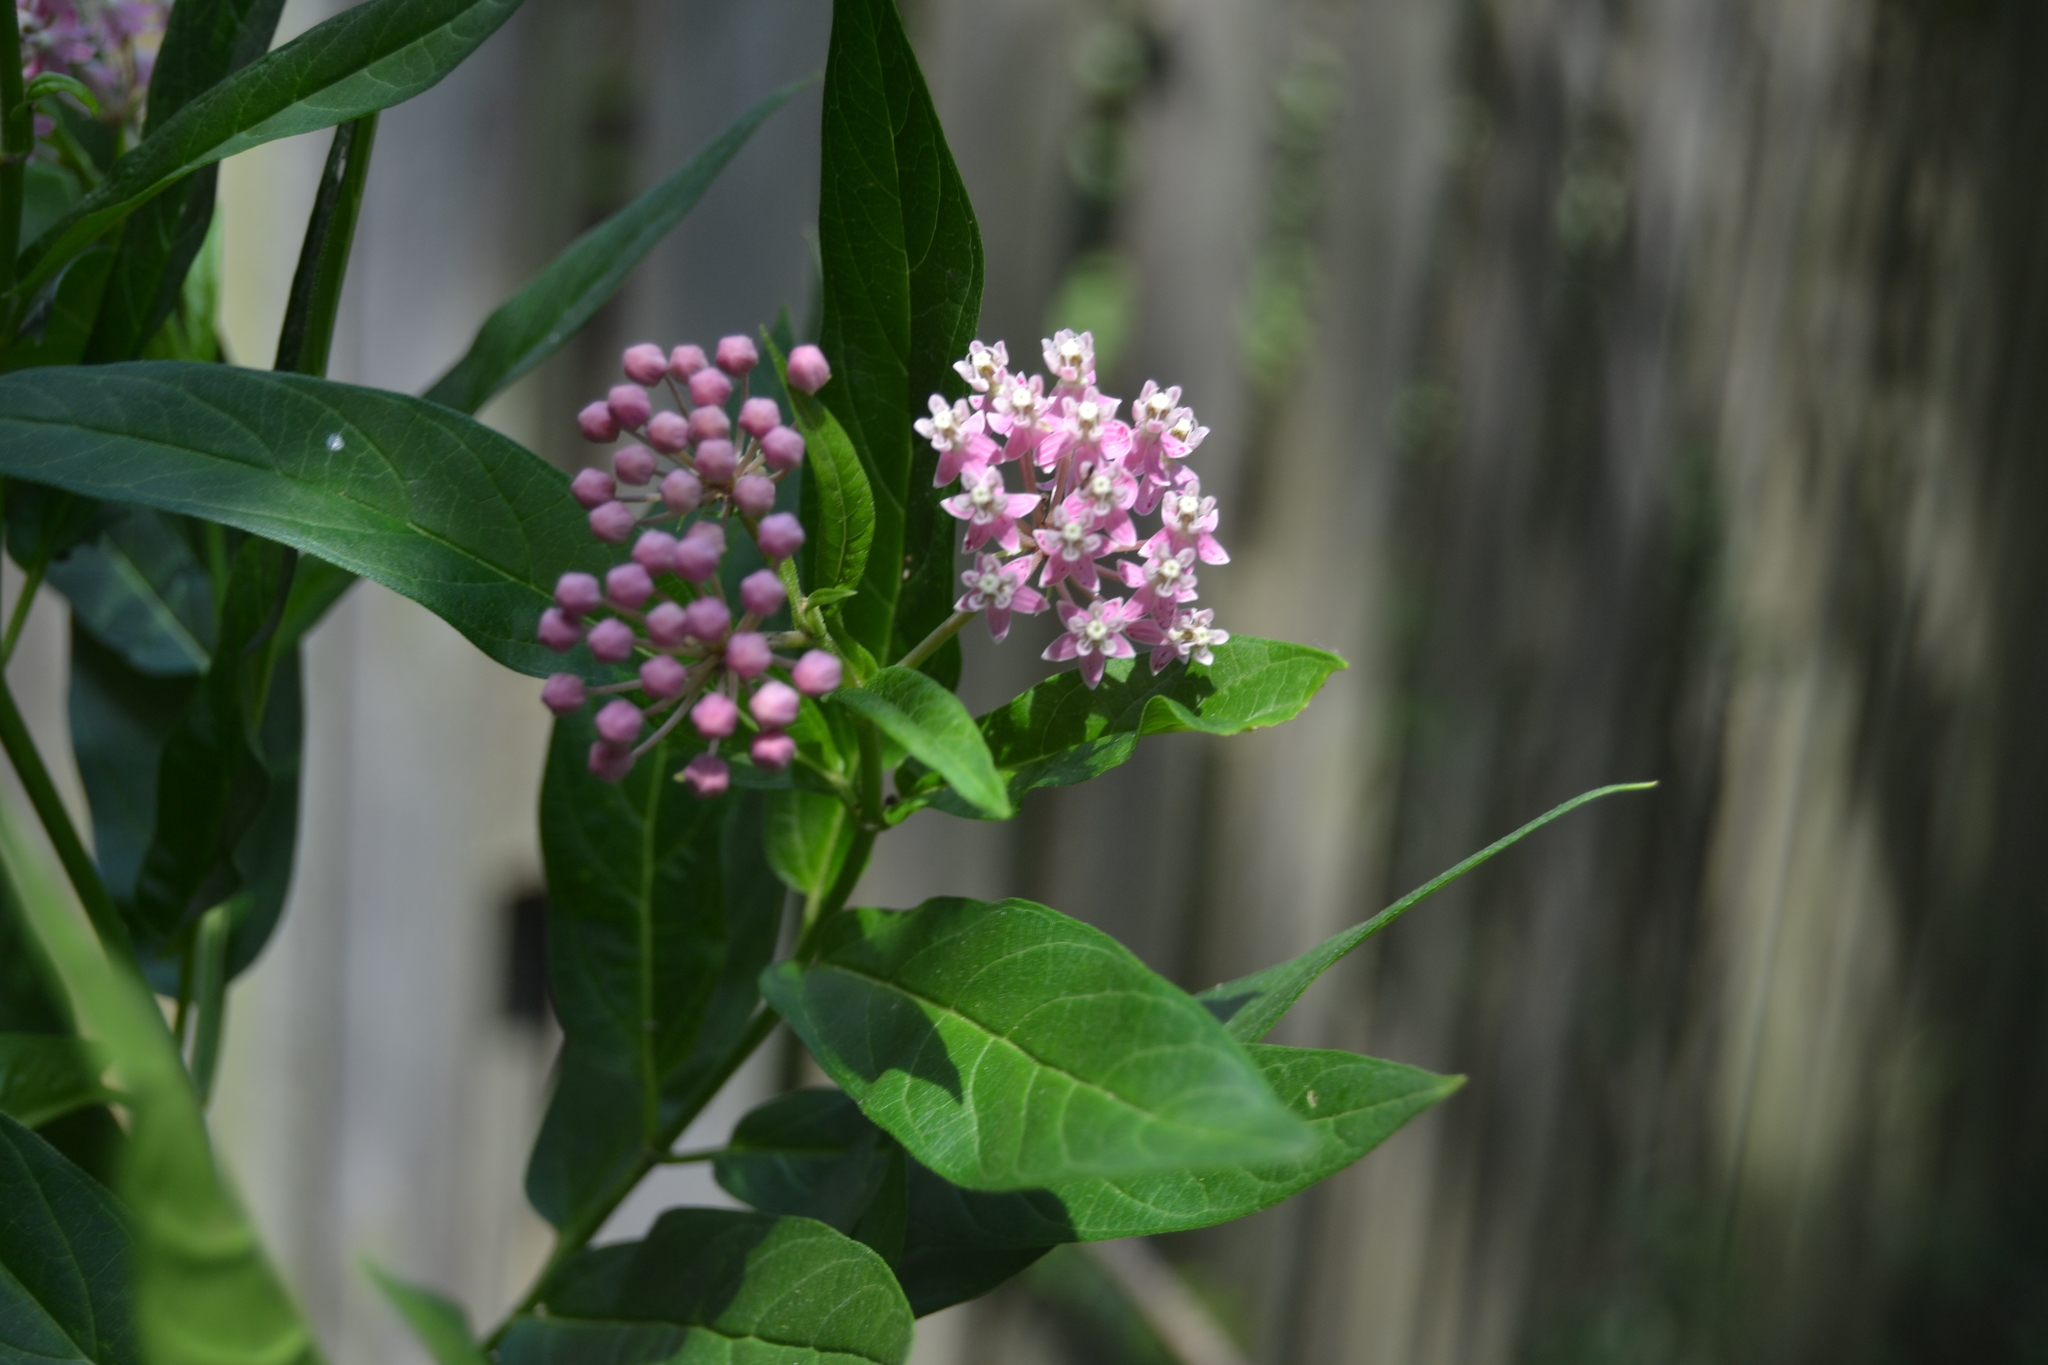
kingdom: Plantae
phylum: Tracheophyta
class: Magnoliopsida
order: Gentianales
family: Apocynaceae
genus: Asclepias
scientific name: Asclepias incarnata
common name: Swamp milkweed
